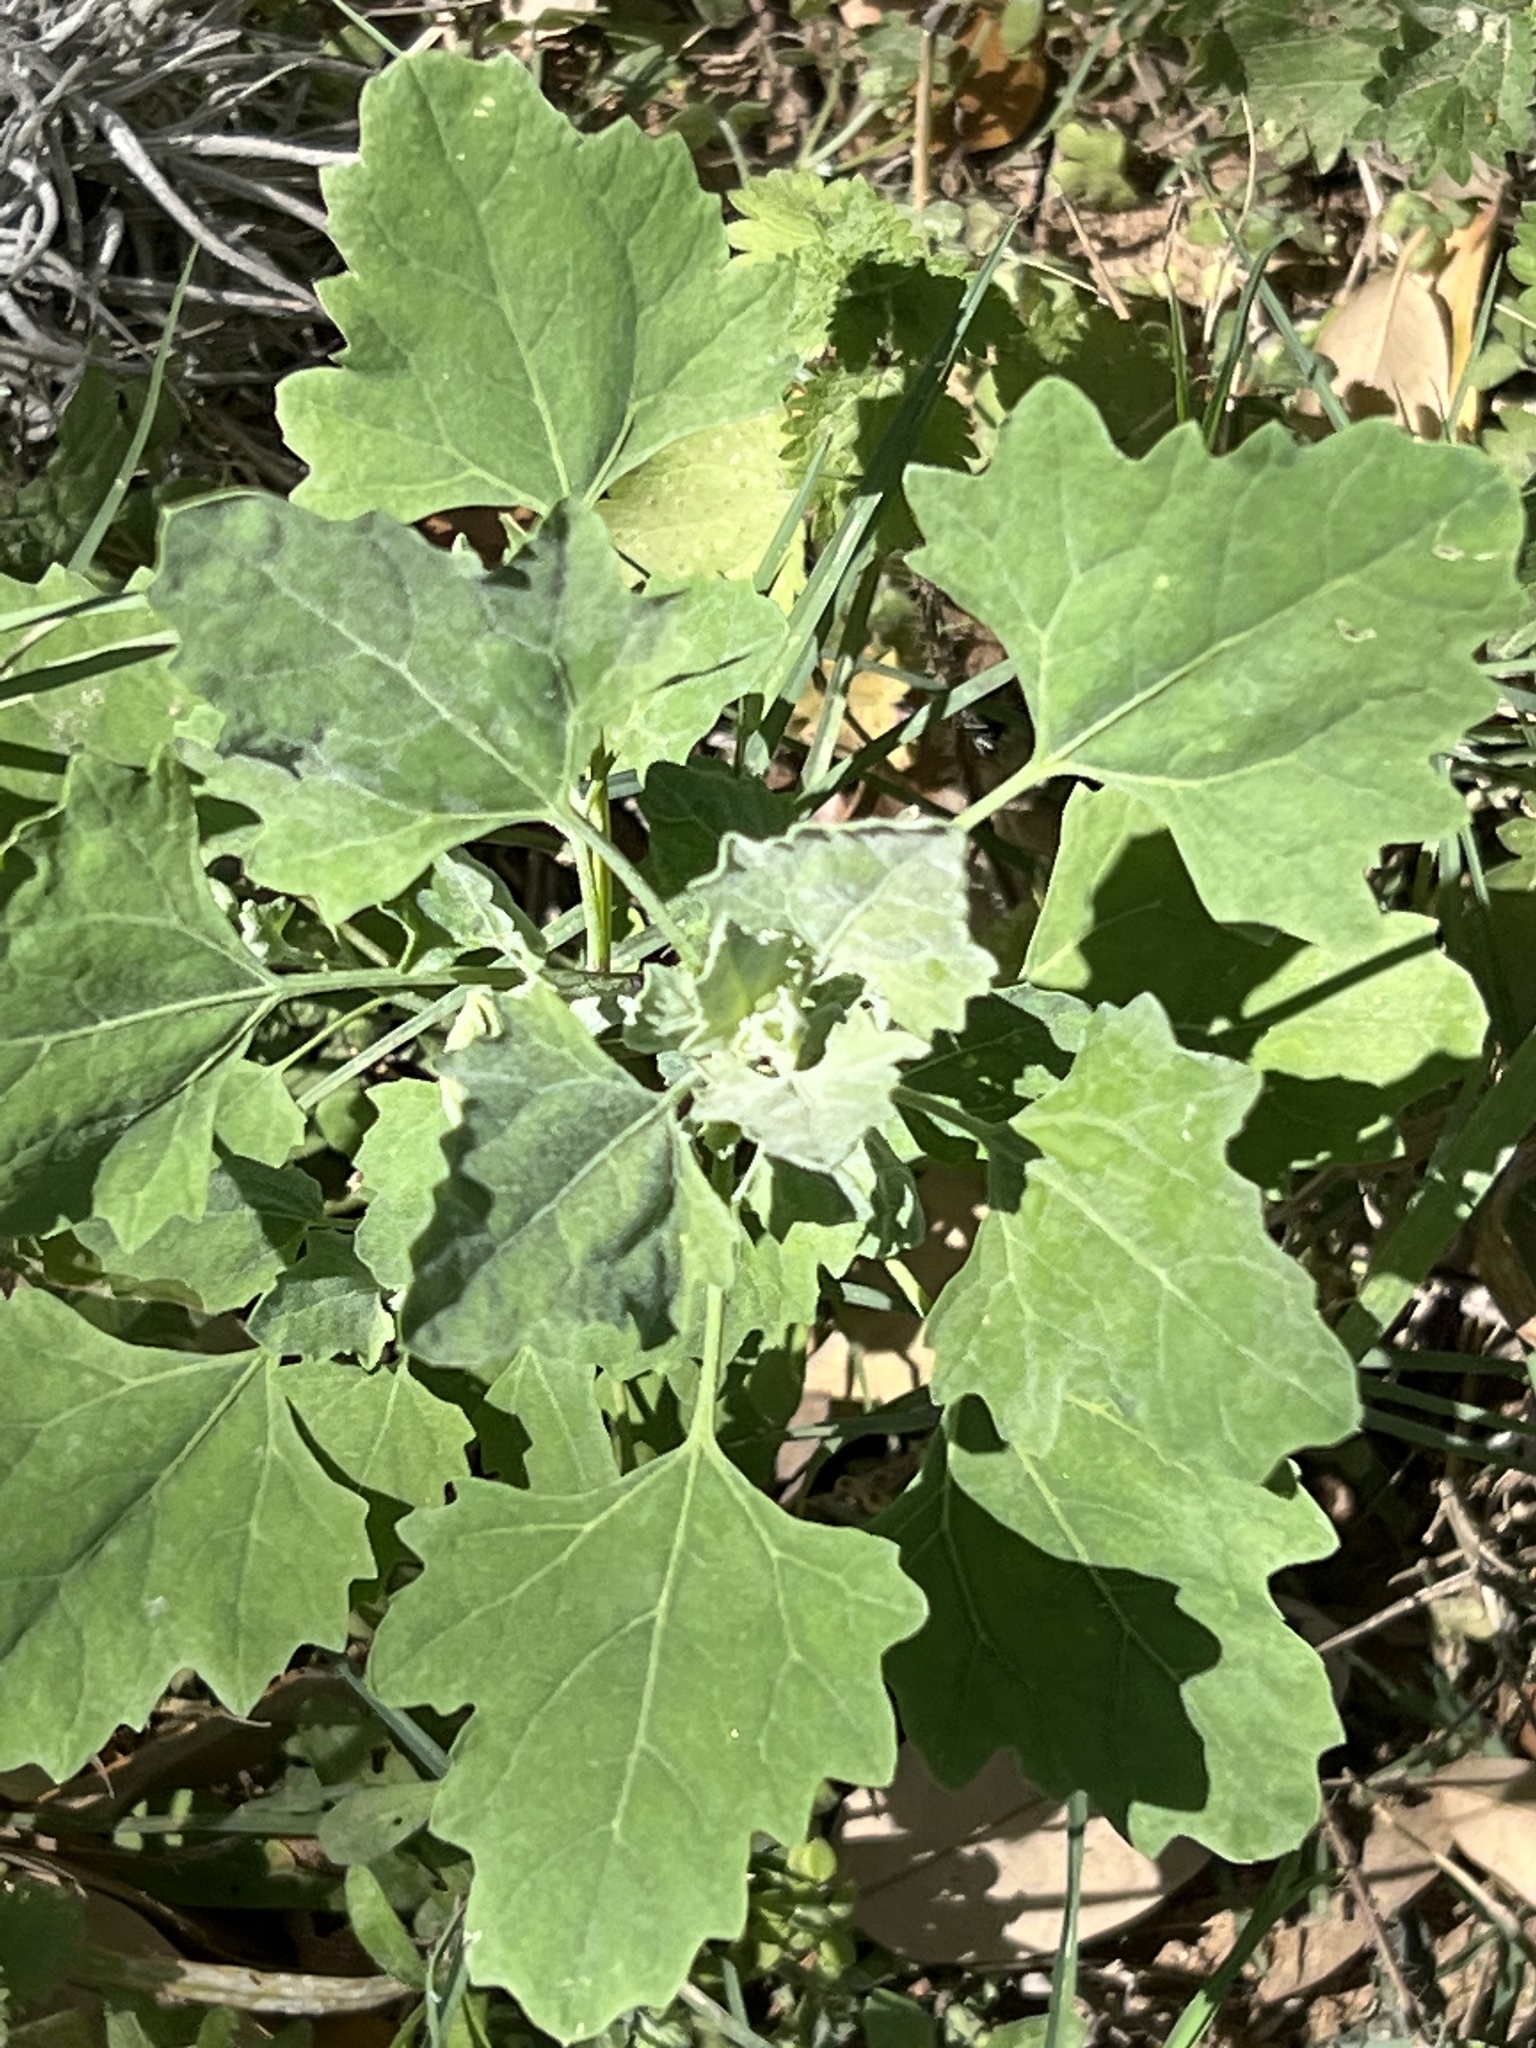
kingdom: Plantae
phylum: Tracheophyta
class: Magnoliopsida
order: Caryophyllales
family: Amaranthaceae
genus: Chenopodium
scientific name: Chenopodium album
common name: Fat-hen
